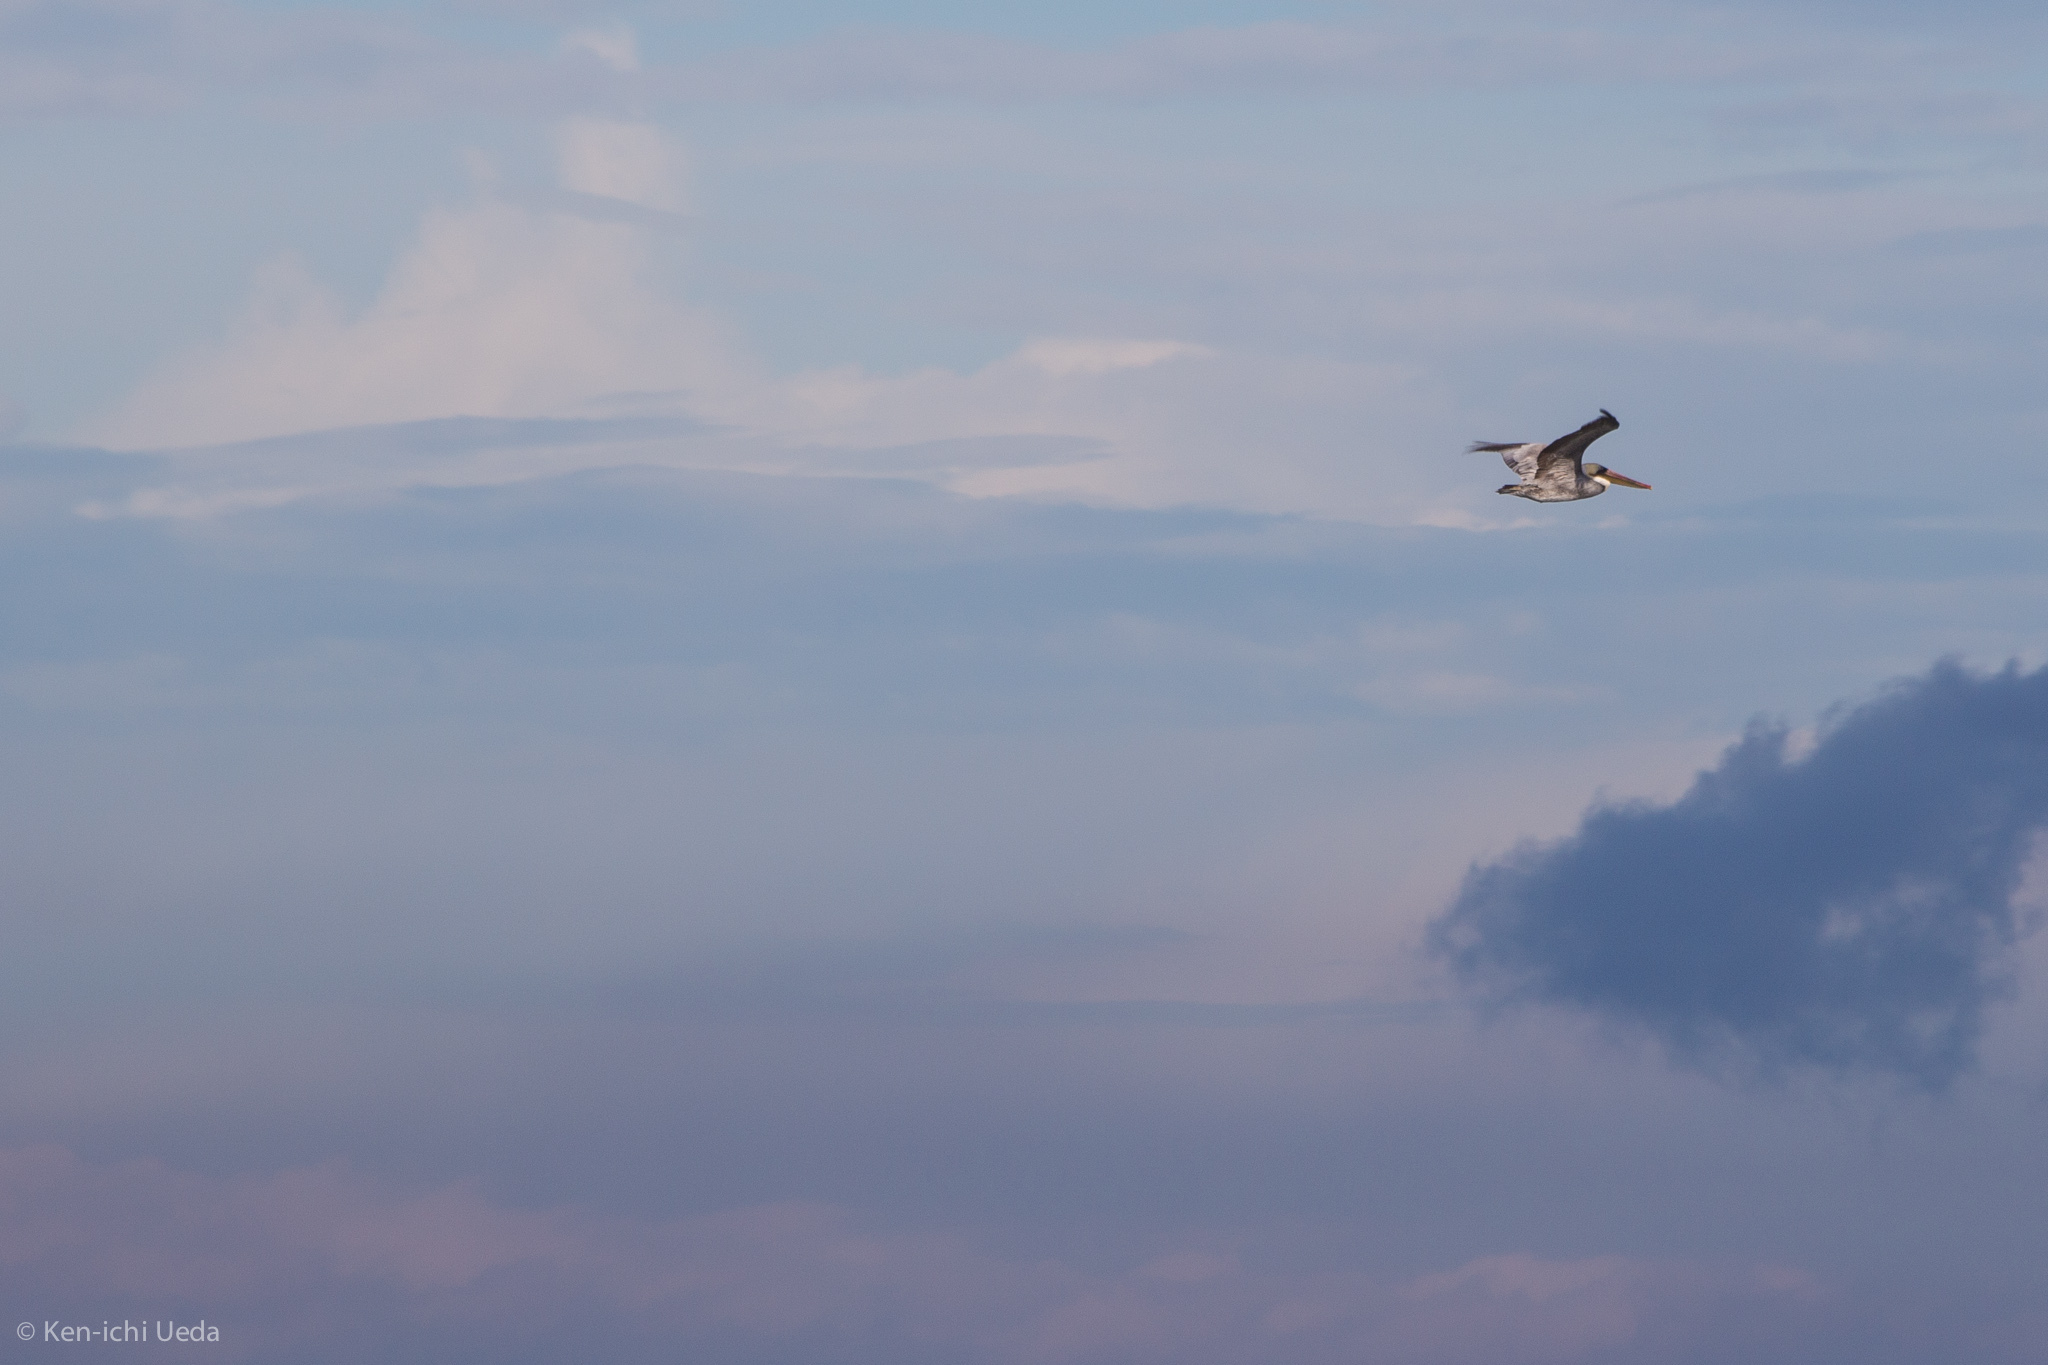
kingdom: Animalia
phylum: Chordata
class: Aves
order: Pelecaniformes
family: Pelecanidae
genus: Pelecanus
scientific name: Pelecanus occidentalis
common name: Brown pelican
